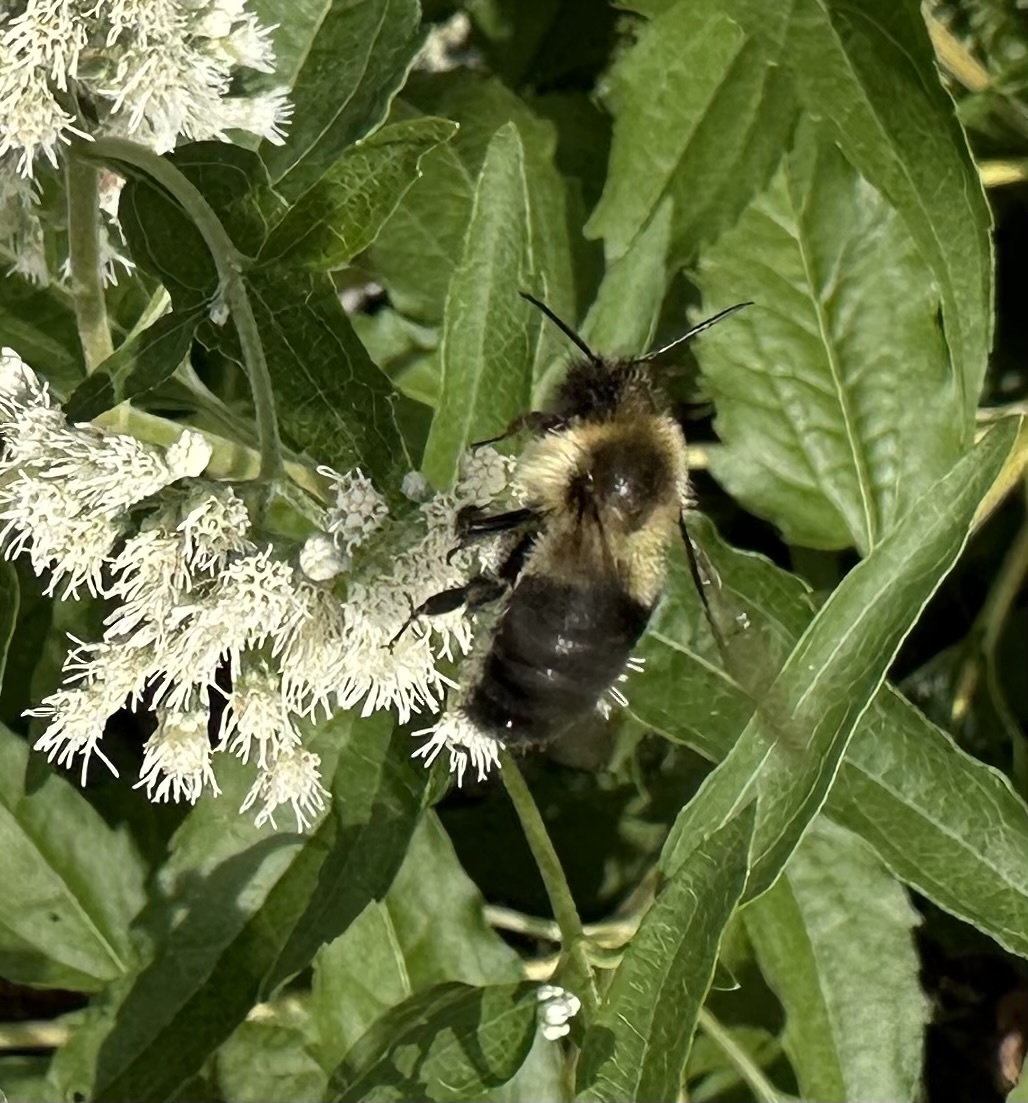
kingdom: Animalia
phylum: Arthropoda
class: Insecta
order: Hymenoptera
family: Apidae
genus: Bombus
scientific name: Bombus impatiens
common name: Common eastern bumble bee
